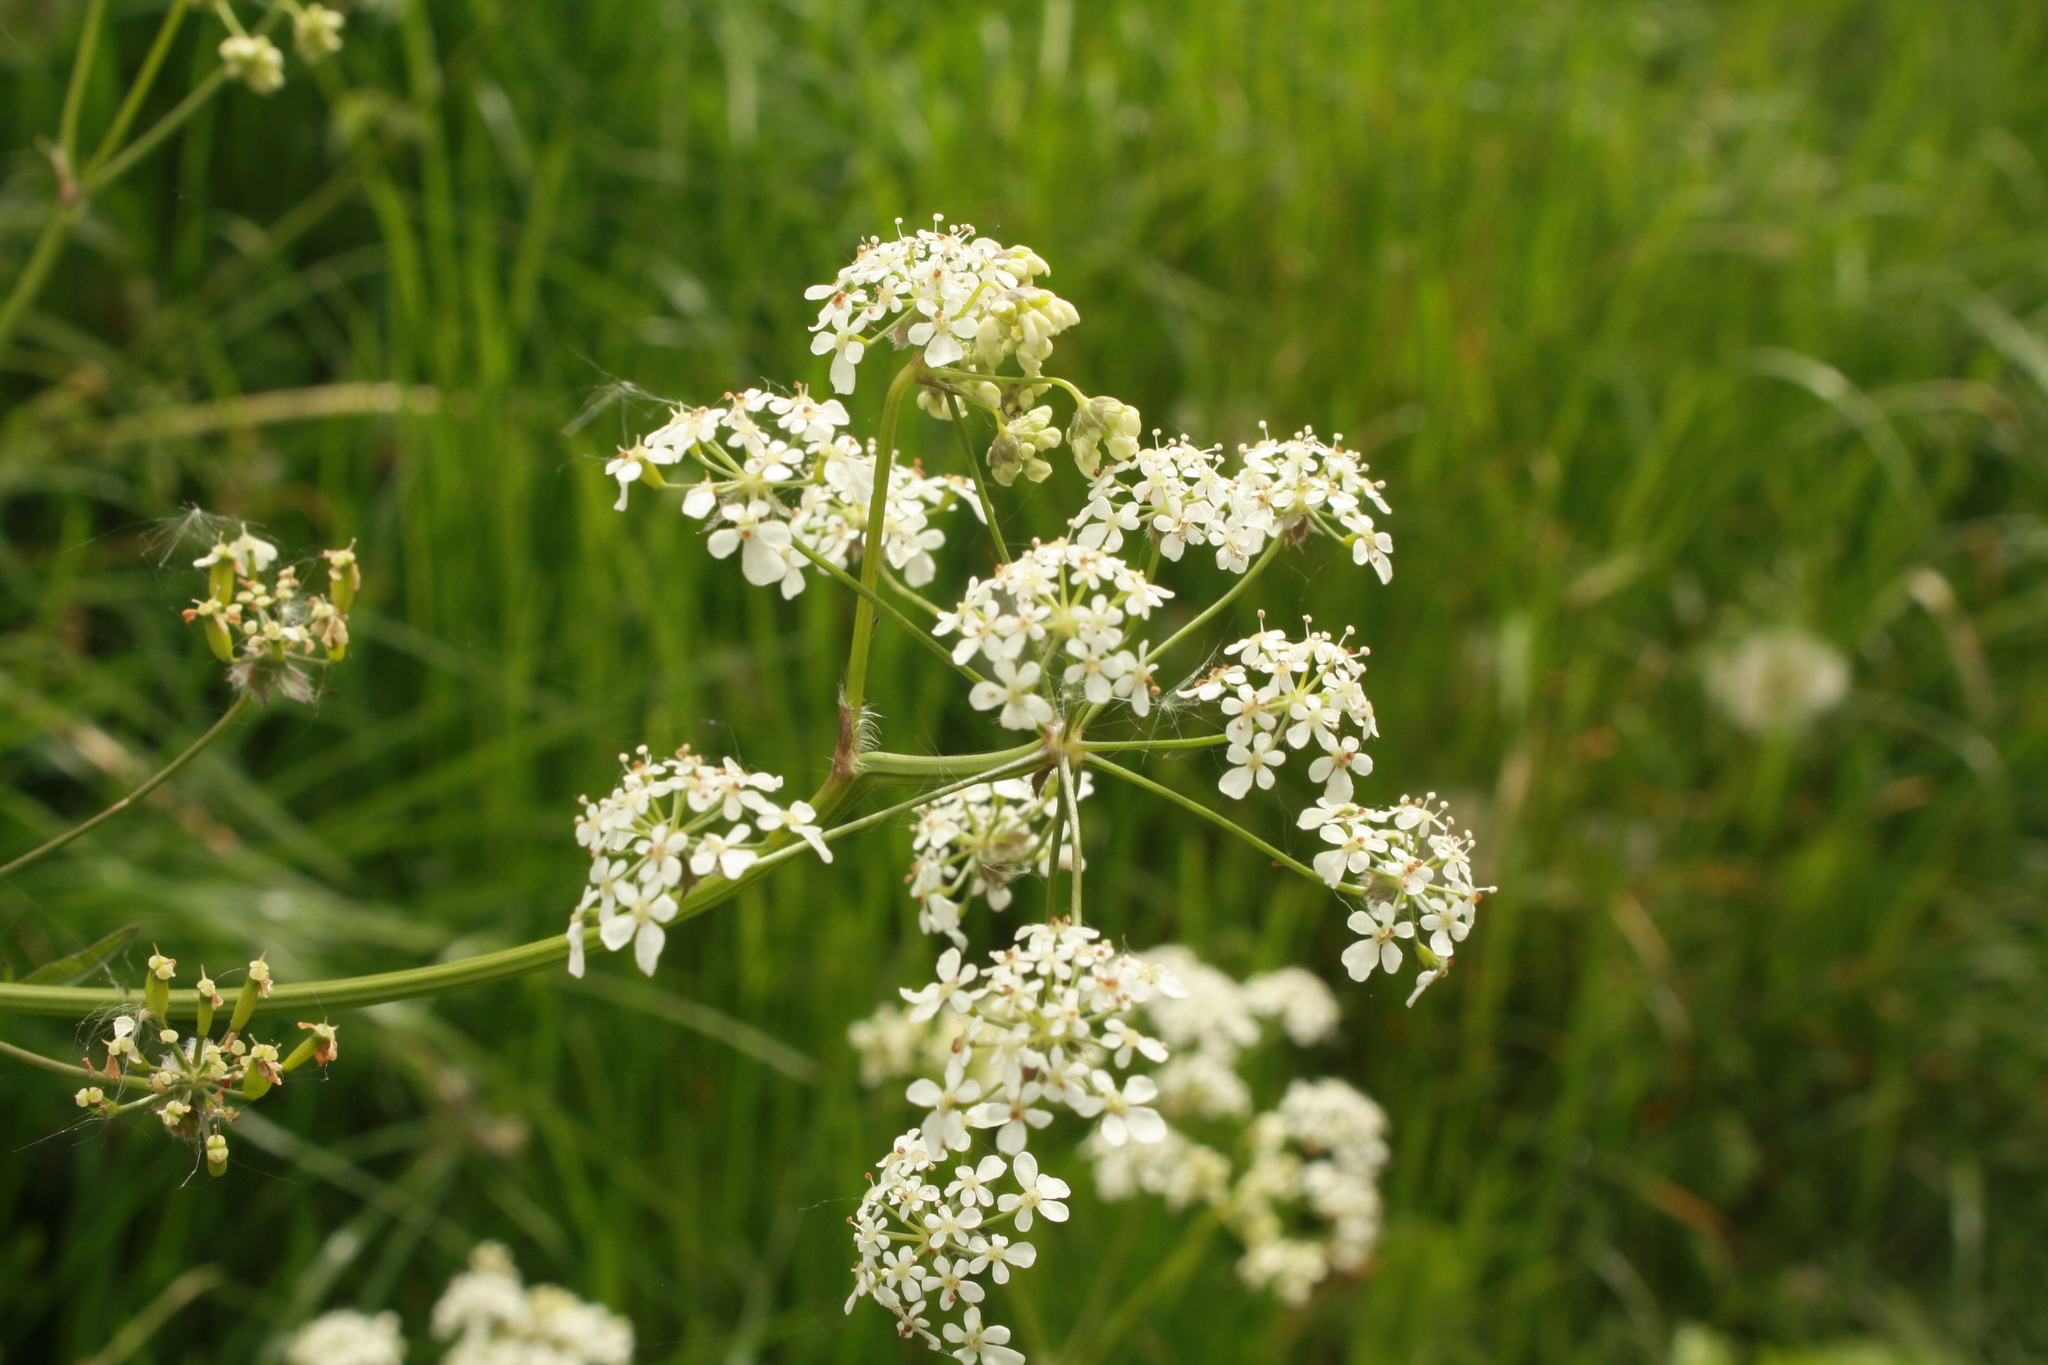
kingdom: Plantae
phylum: Tracheophyta
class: Magnoliopsida
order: Apiales
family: Apiaceae
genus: Anthriscus
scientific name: Anthriscus sylvestris
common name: Cow parsley
